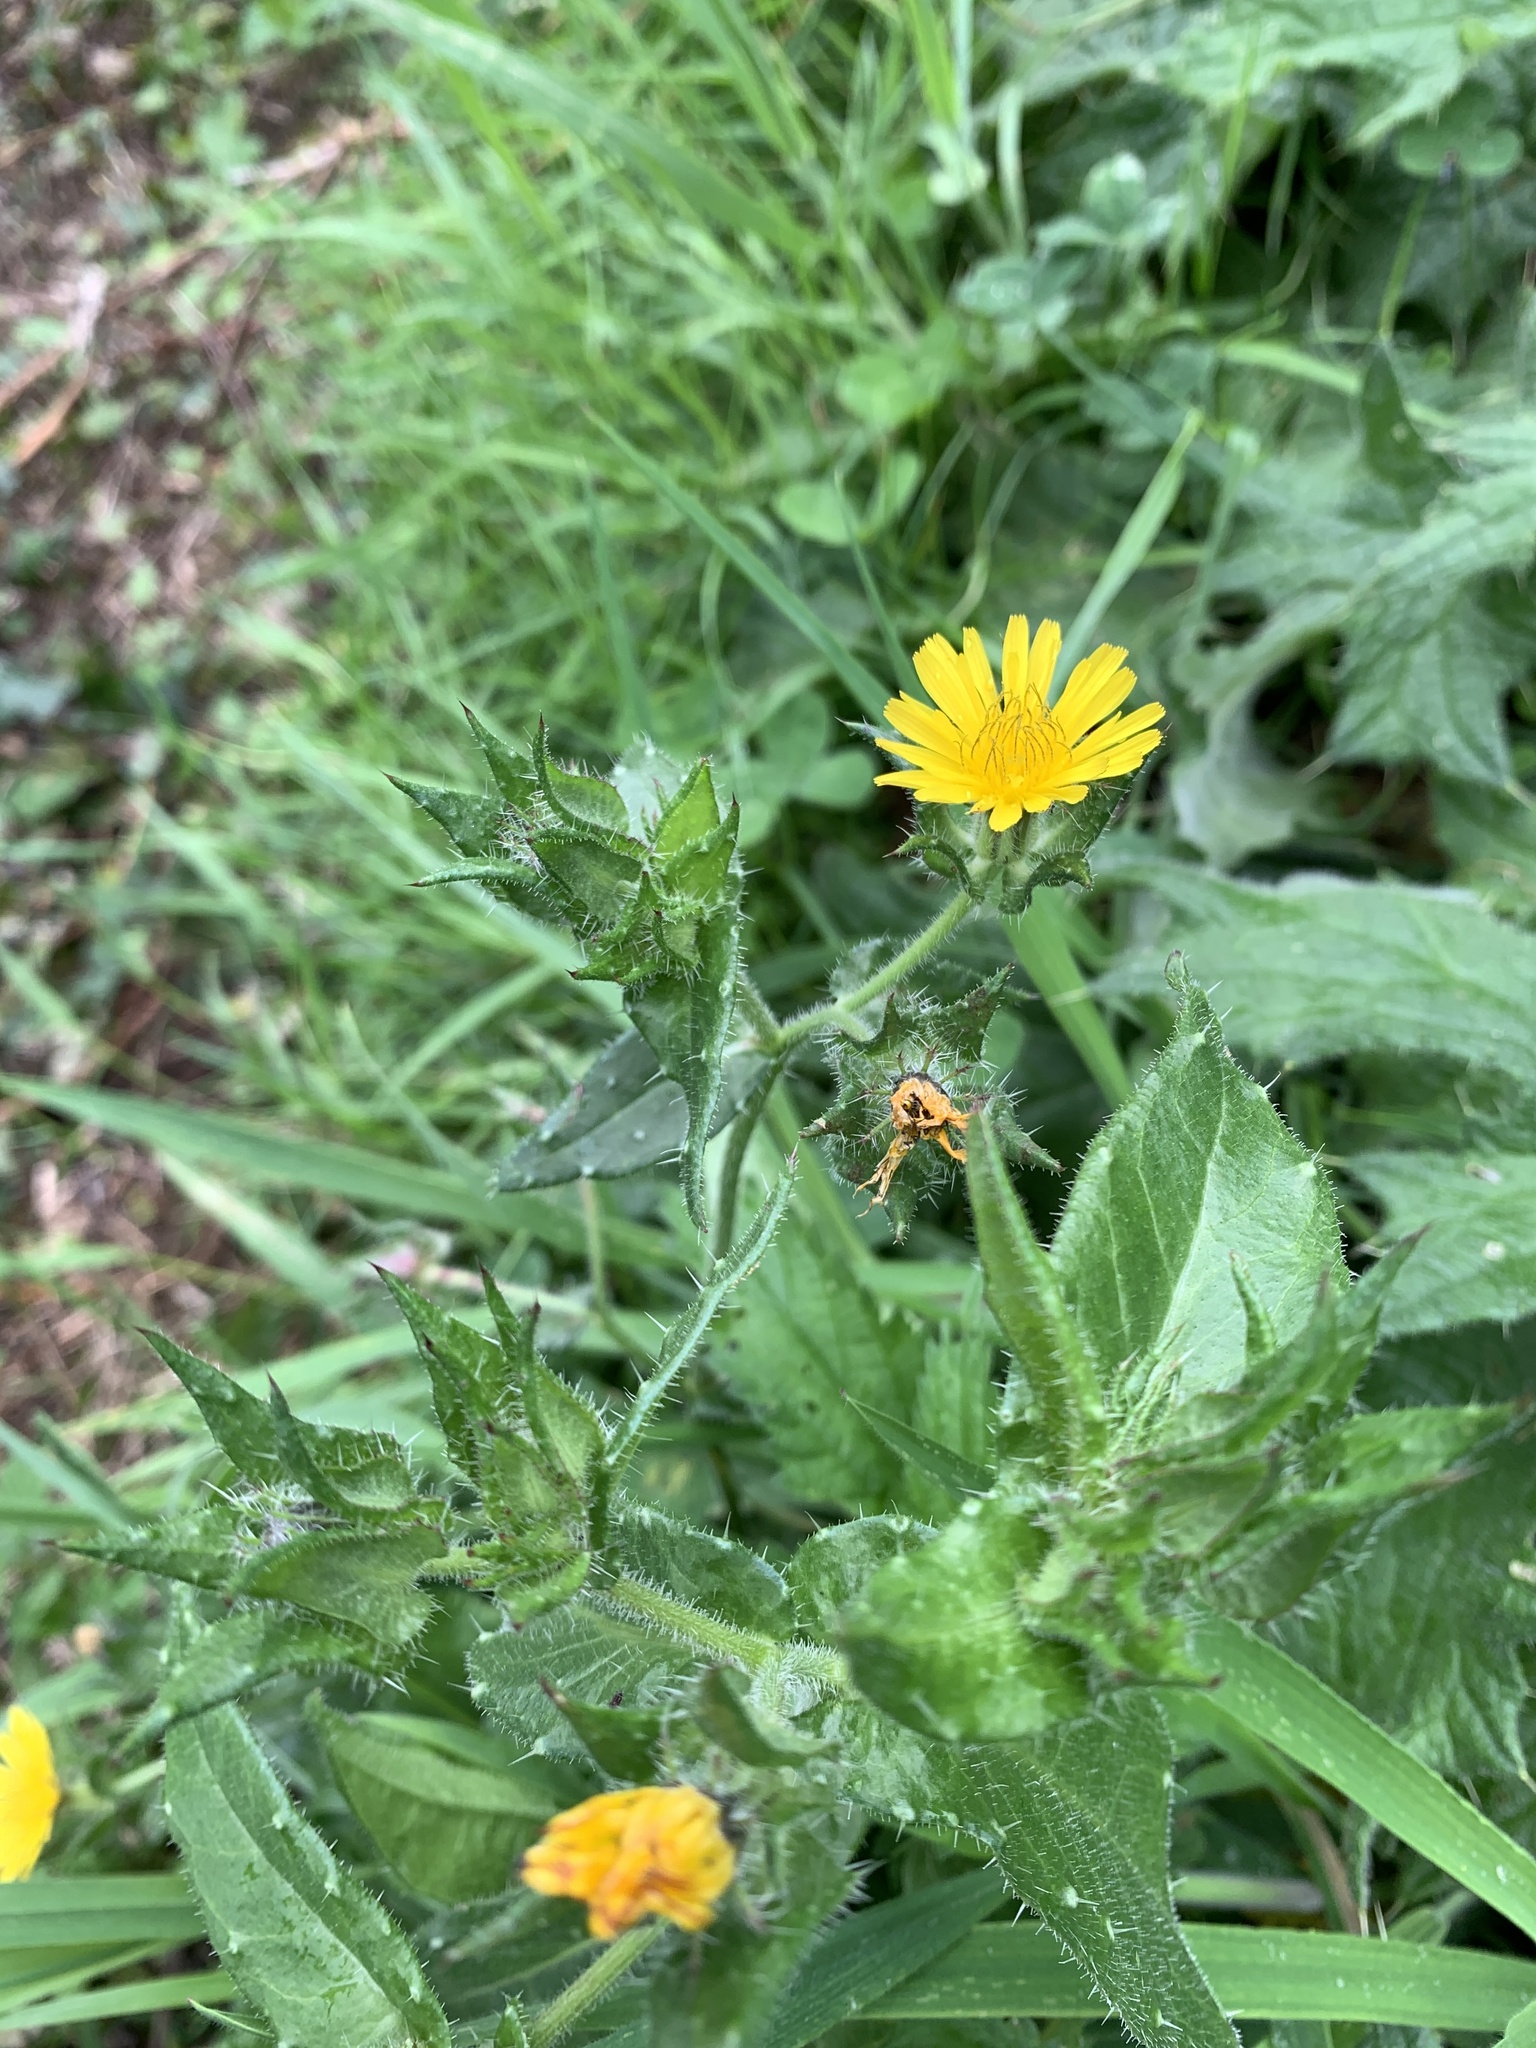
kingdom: Plantae
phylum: Tracheophyta
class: Magnoliopsida
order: Asterales
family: Asteraceae
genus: Helminthotheca
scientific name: Helminthotheca echioides
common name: Ox-tongue
